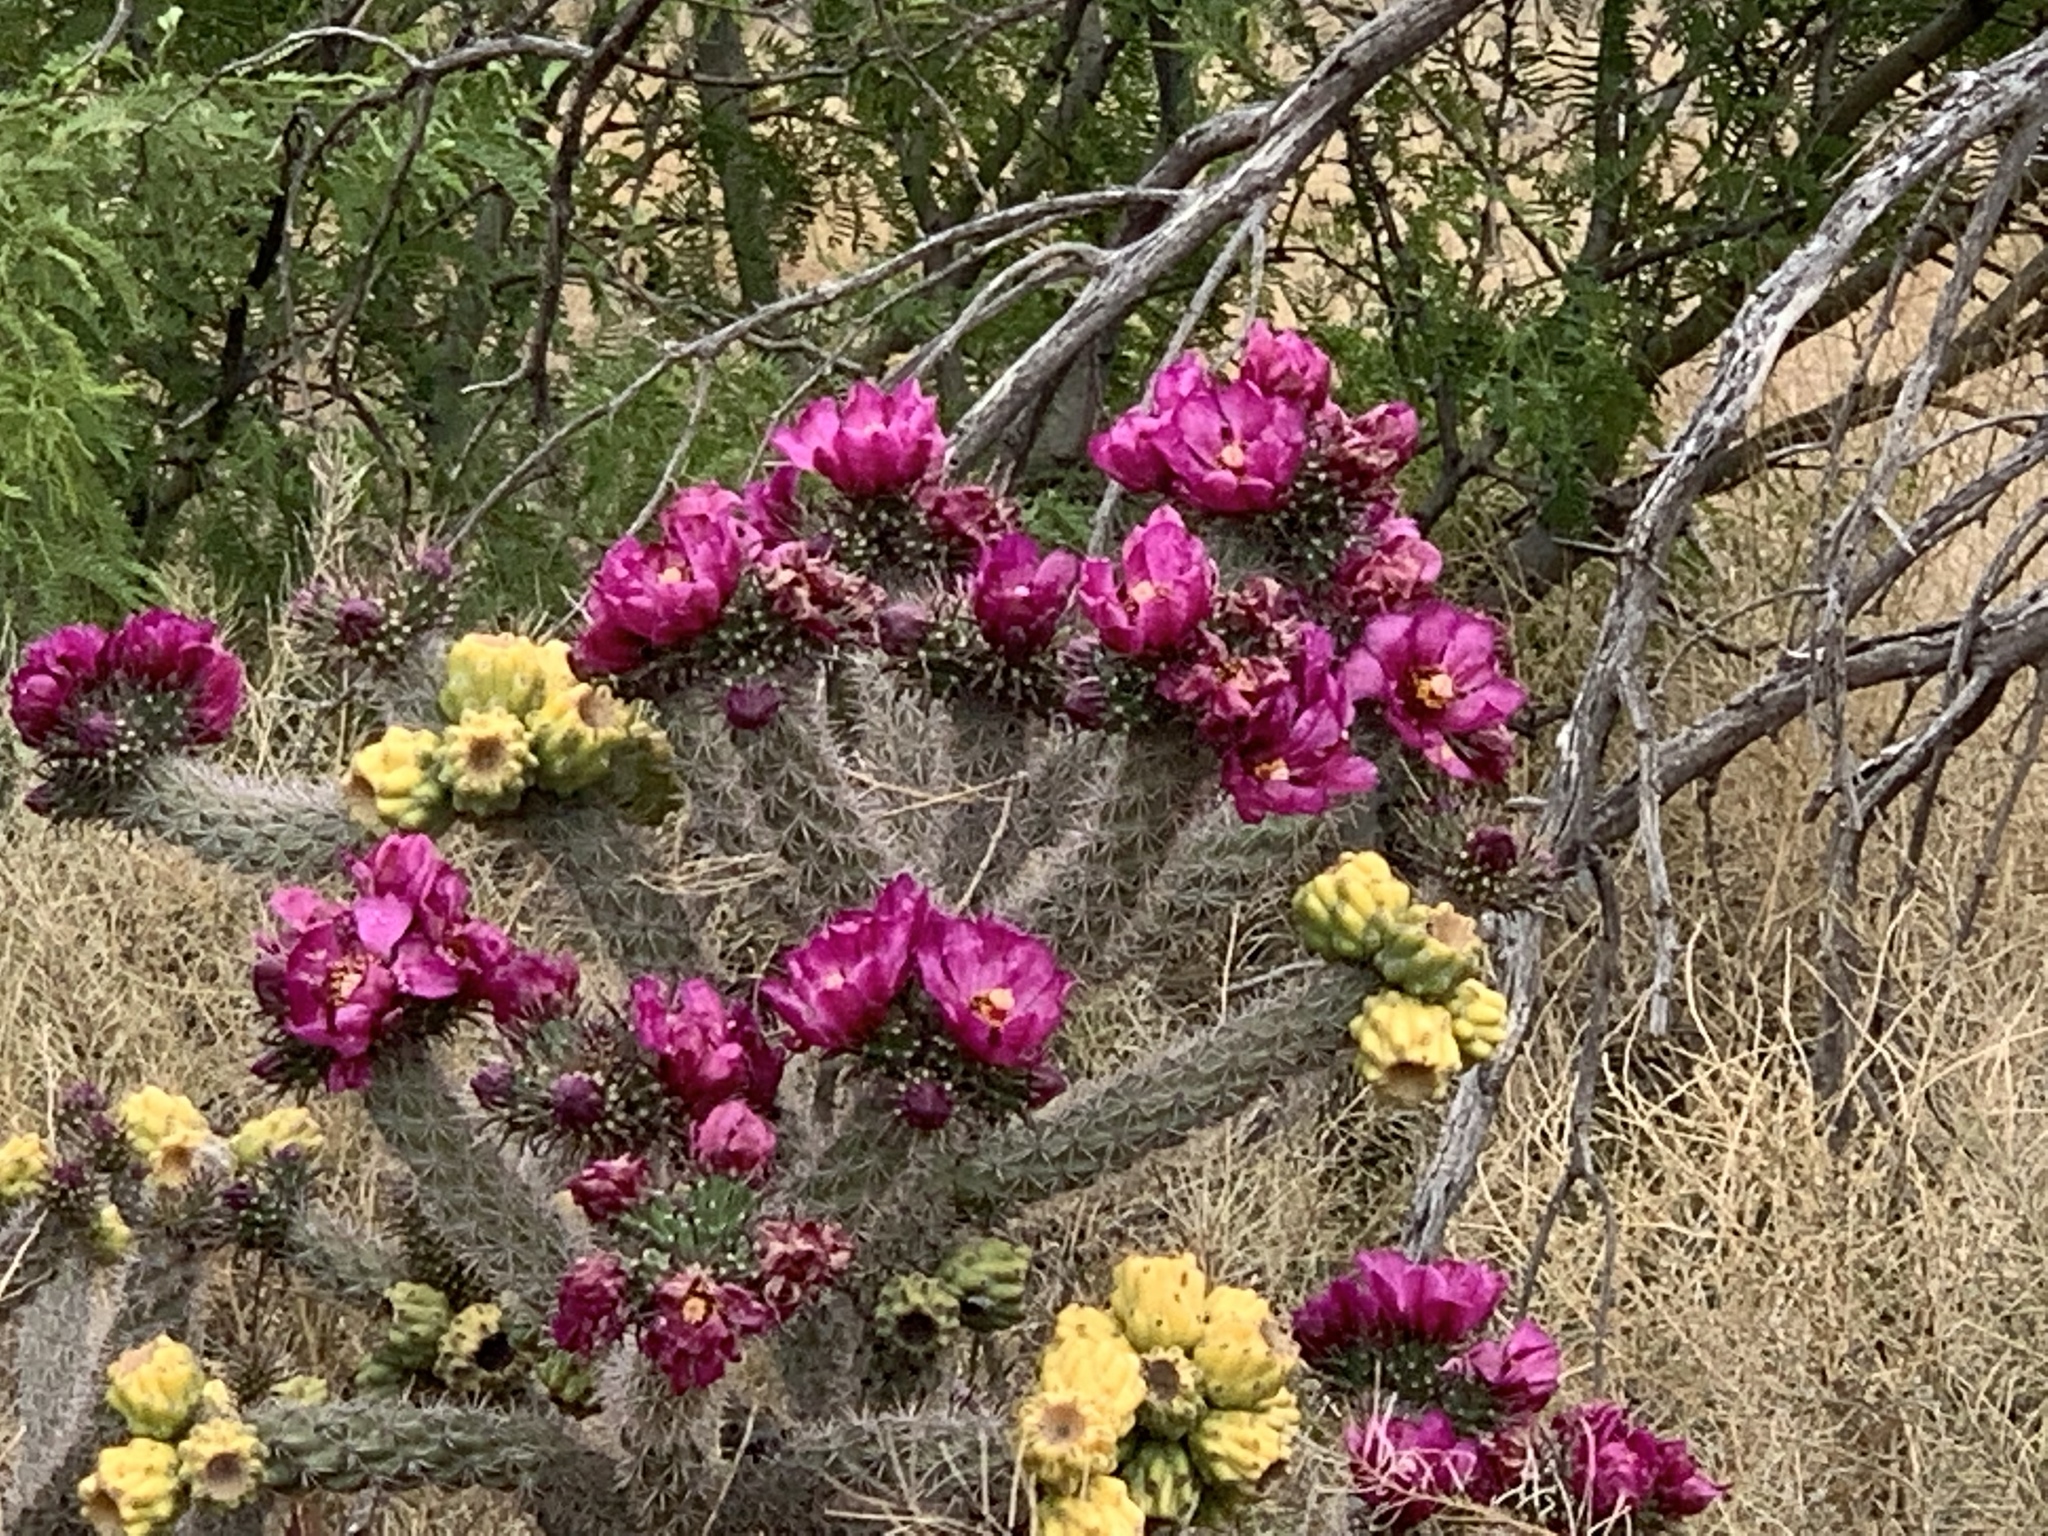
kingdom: Plantae
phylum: Tracheophyta
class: Magnoliopsida
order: Caryophyllales
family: Cactaceae
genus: Cylindropuntia
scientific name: Cylindropuntia imbricata
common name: Candelabrum cactus
